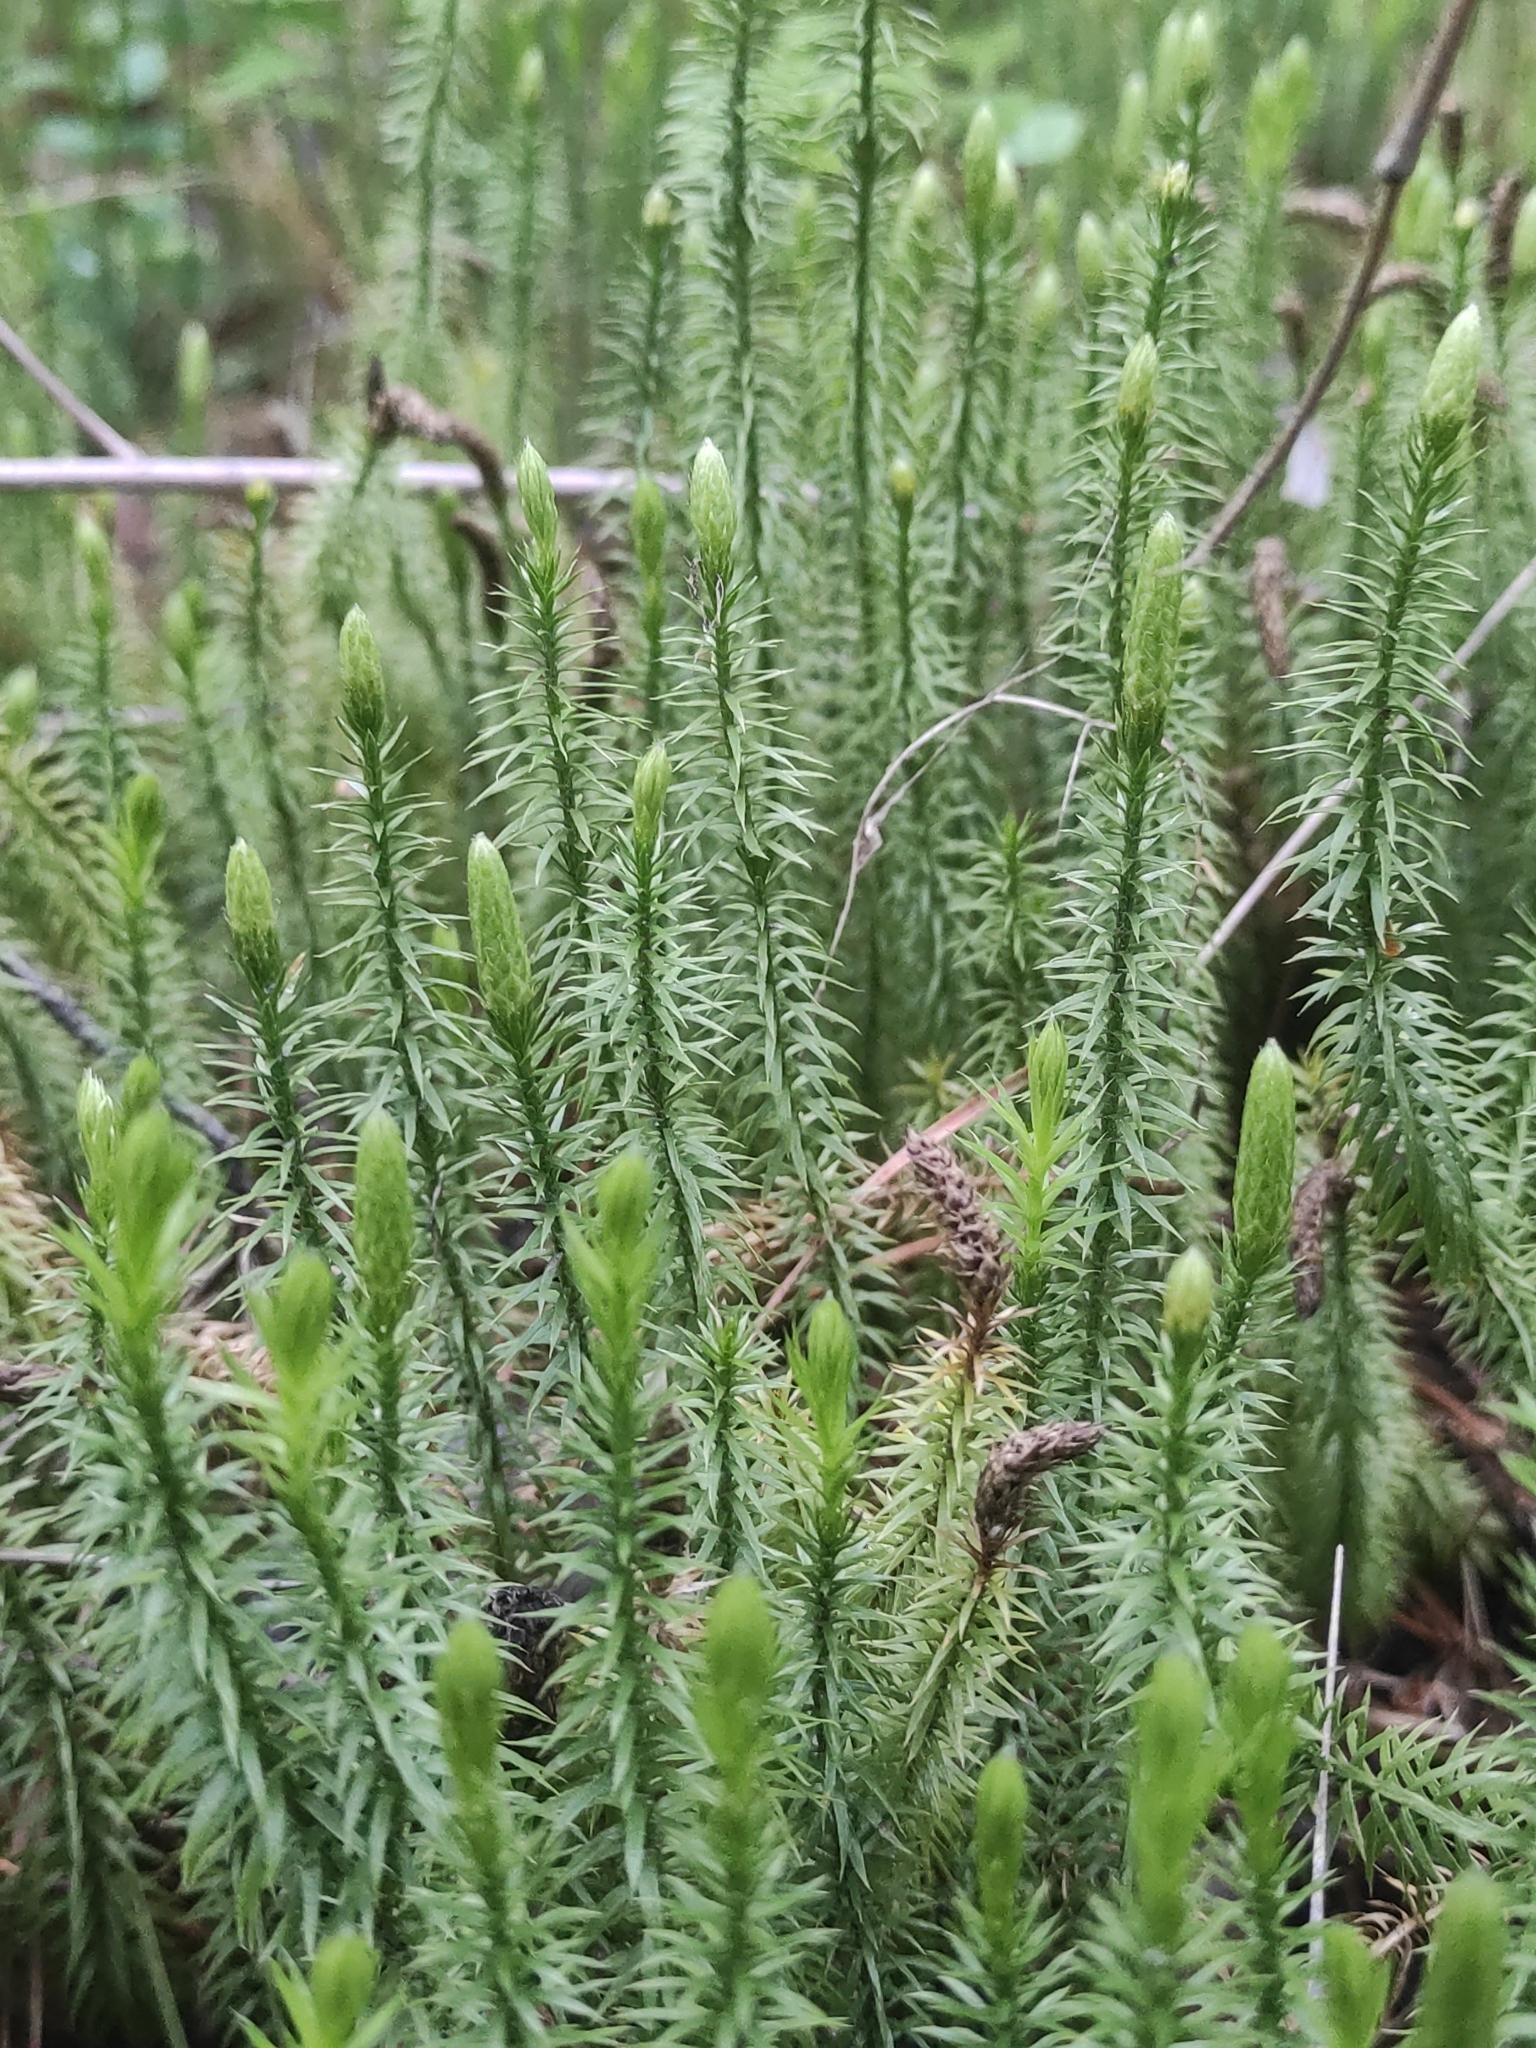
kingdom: Plantae
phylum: Tracheophyta
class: Lycopodiopsida
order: Lycopodiales
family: Lycopodiaceae
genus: Spinulum
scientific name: Spinulum annotinum
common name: Interrupted club-moss
